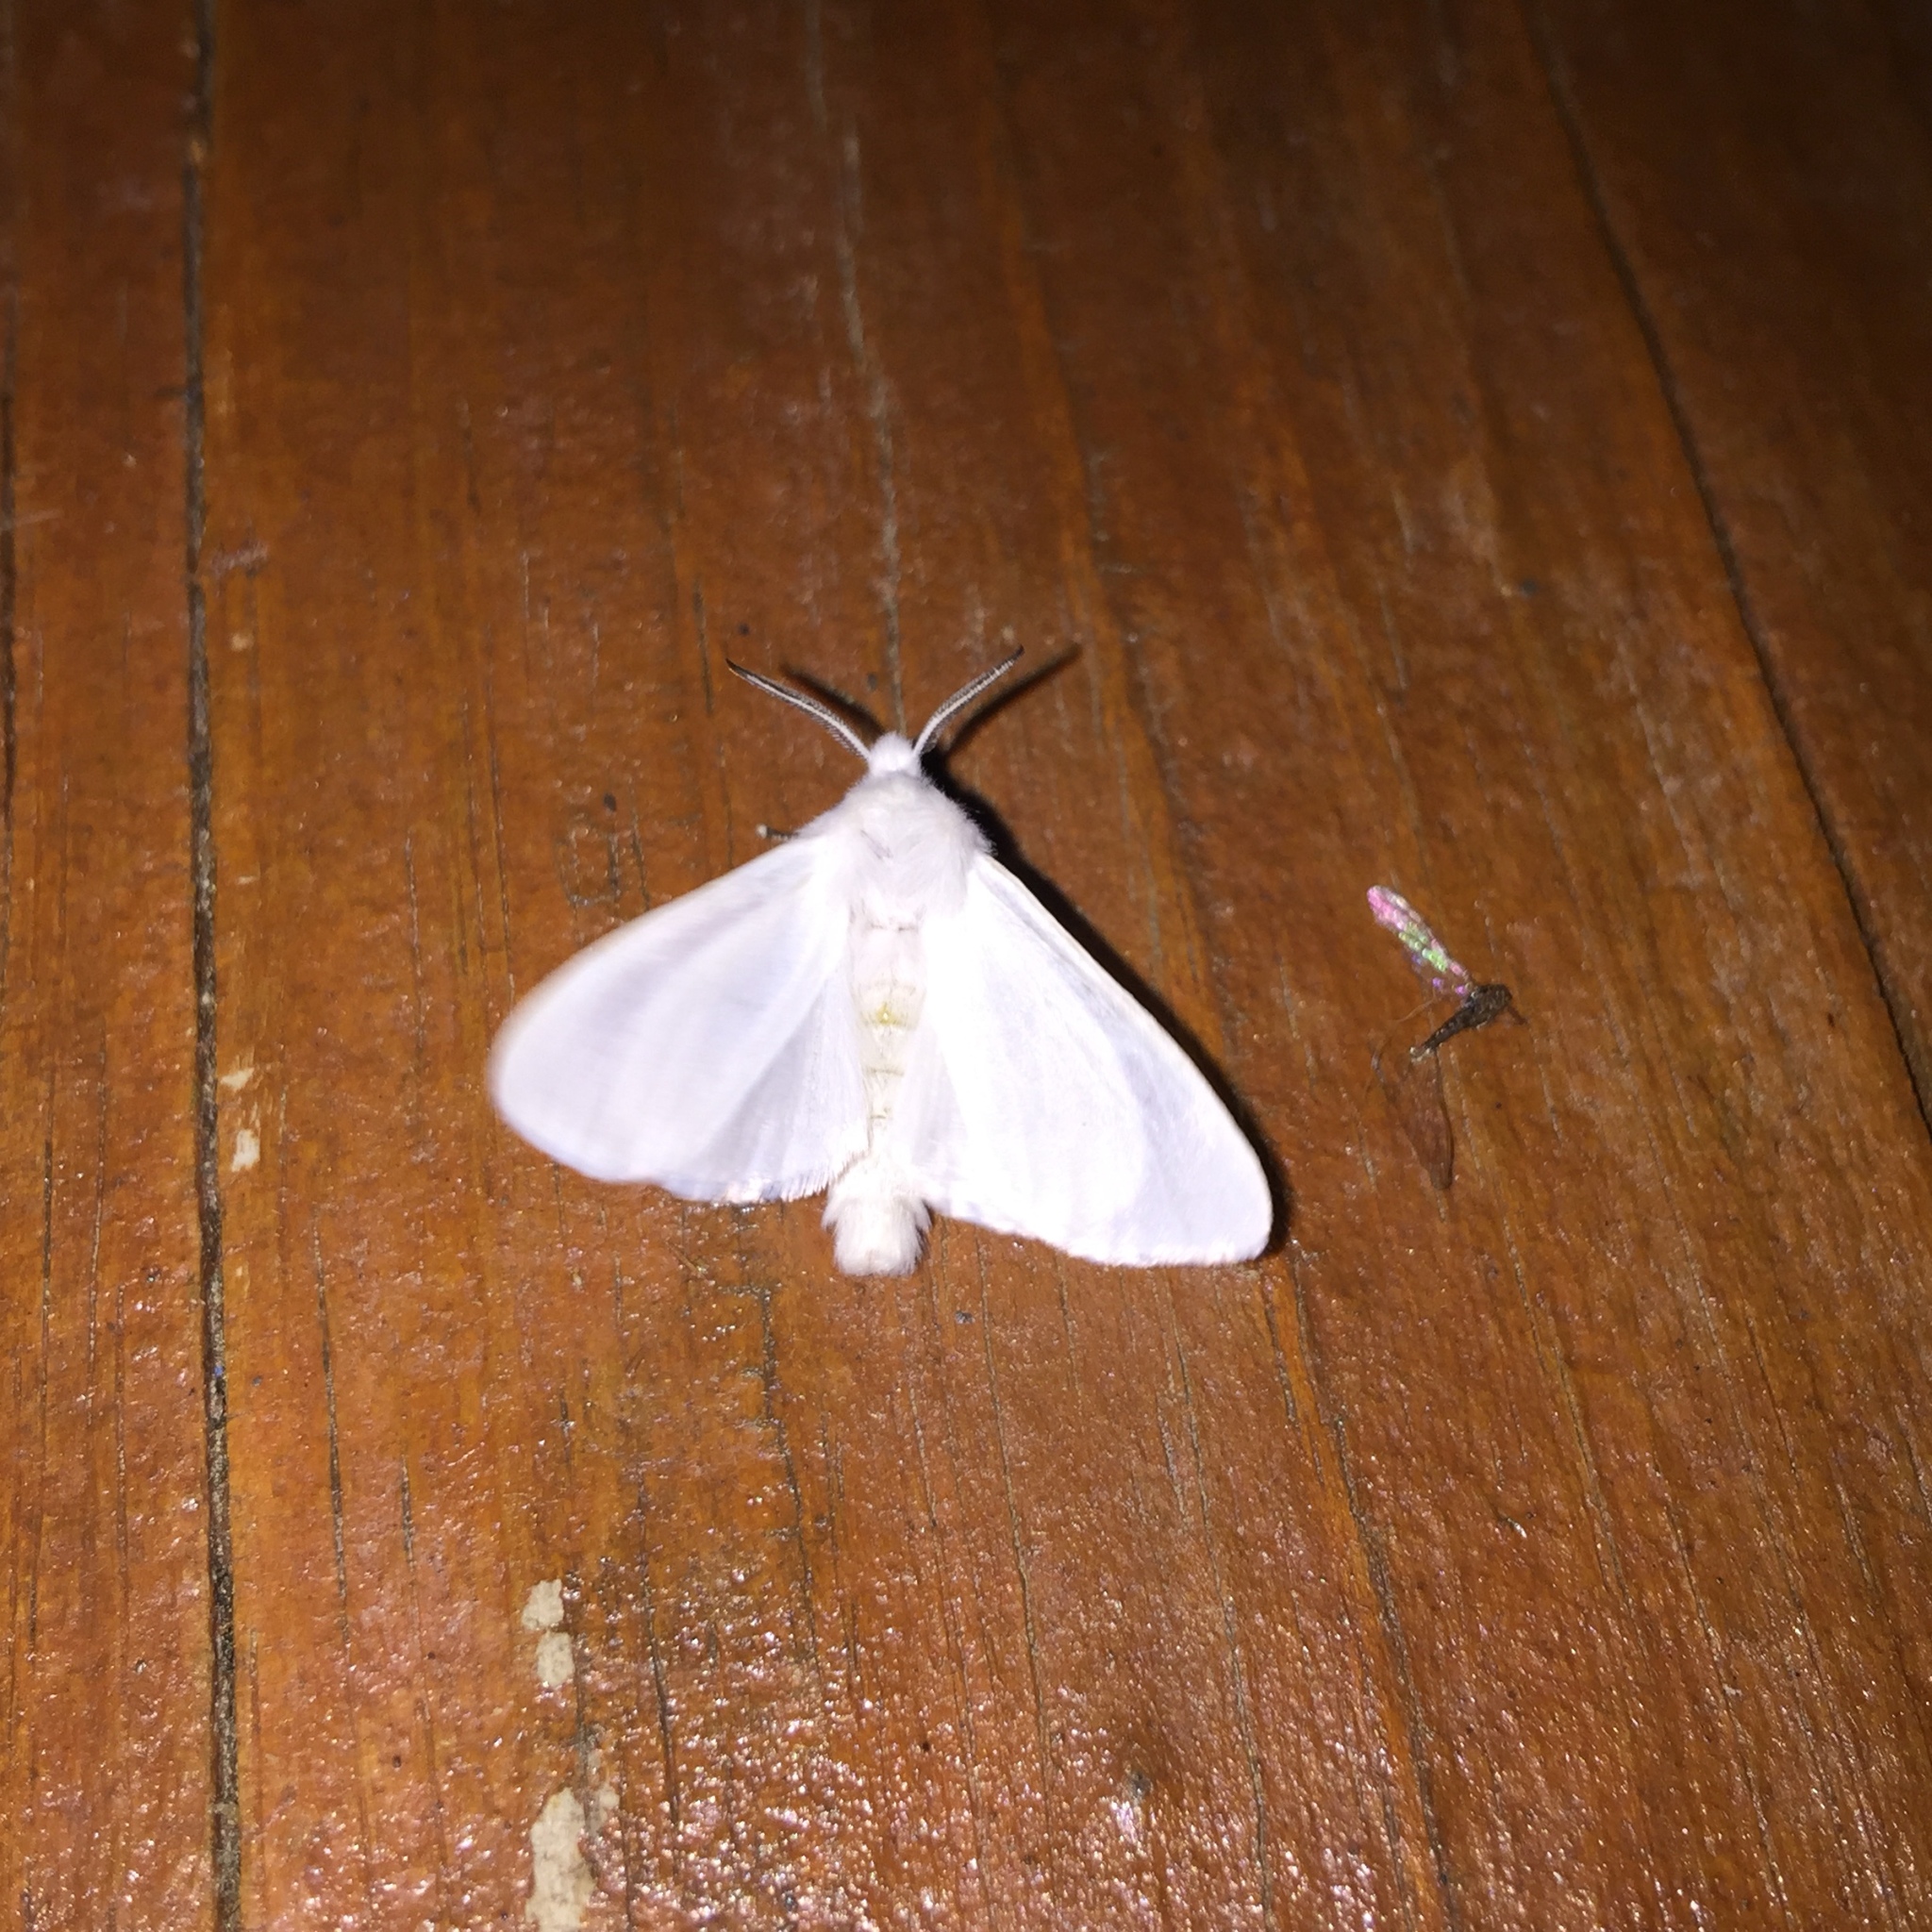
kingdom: Animalia
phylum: Arthropoda
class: Insecta
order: Lepidoptera
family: Erebidae
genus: Hyphantria
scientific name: Hyphantria cunea
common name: American white moth
